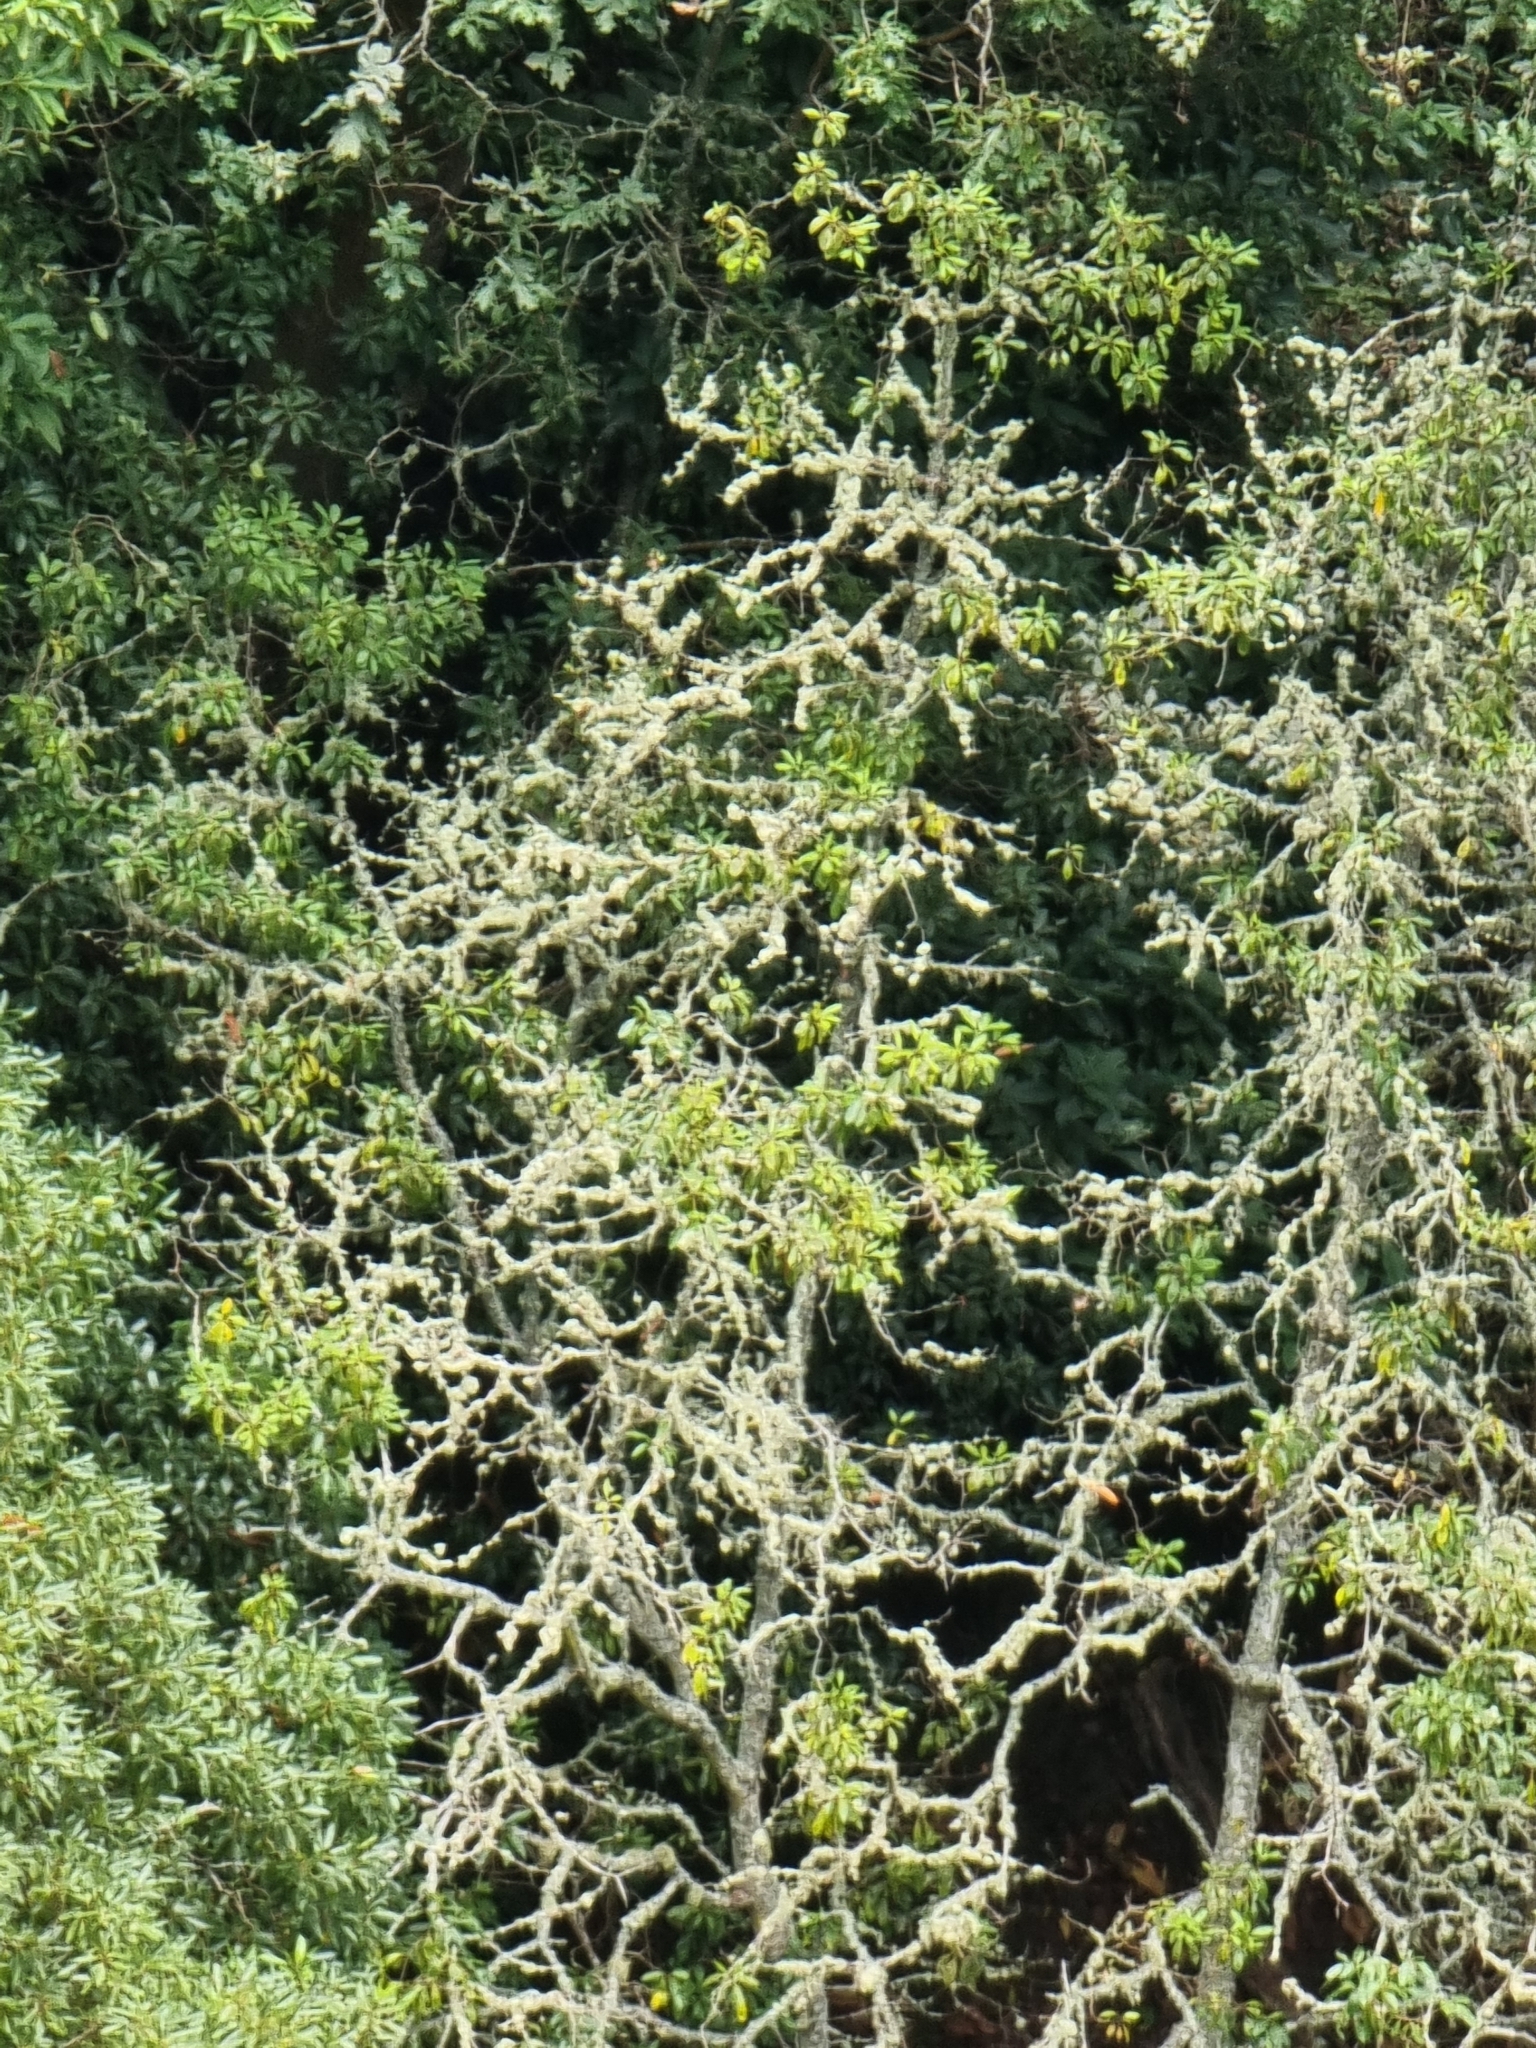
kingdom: Plantae
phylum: Tracheophyta
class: Magnoliopsida
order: Apiales
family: Pittosporaceae
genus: Pittosporum
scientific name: Pittosporum undulatum
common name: Australian cheesewood
